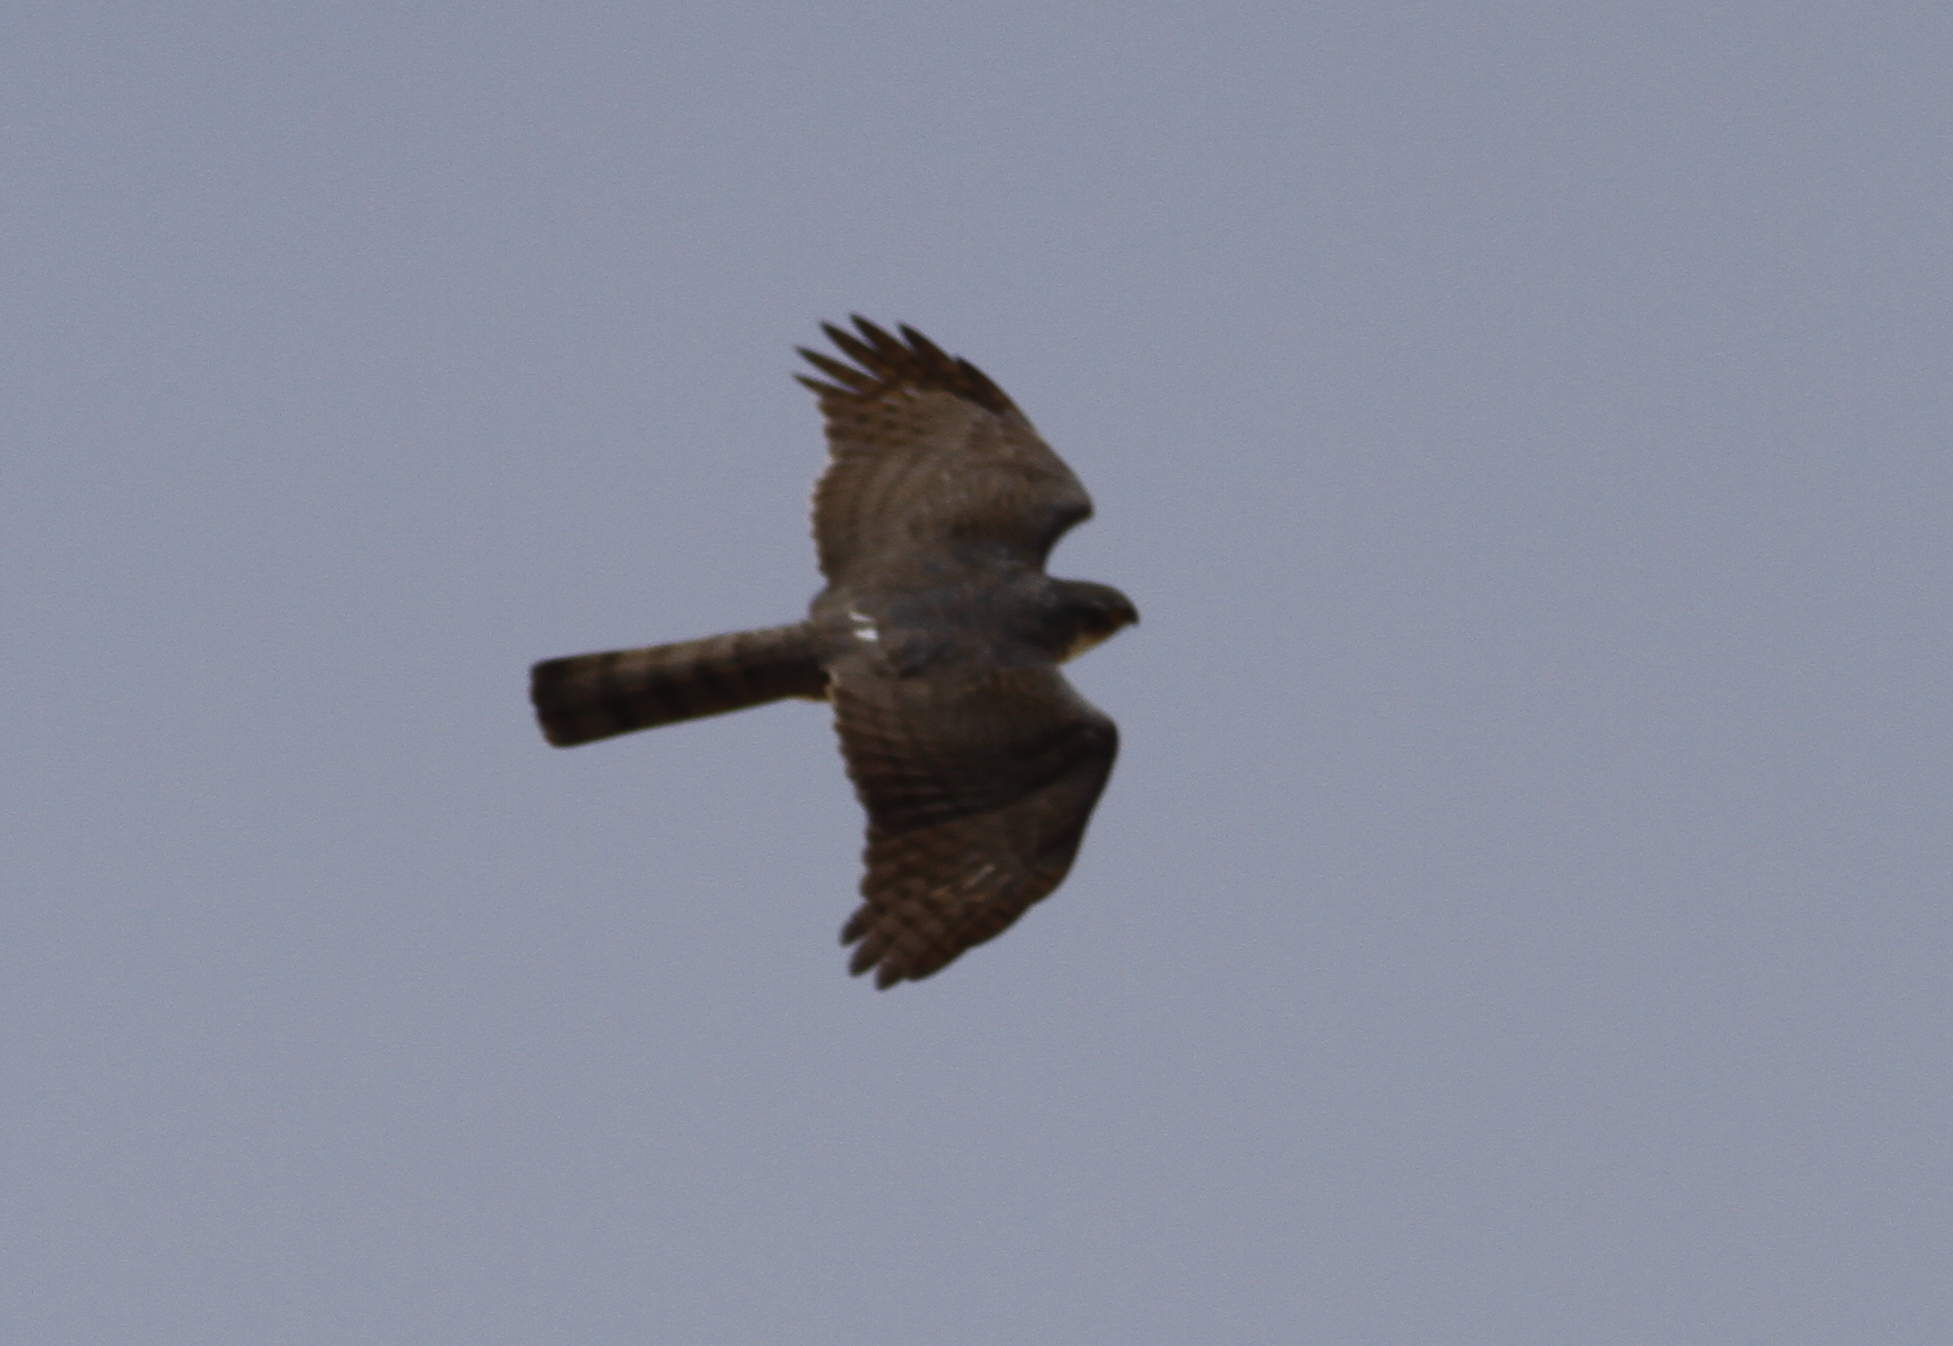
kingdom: Animalia
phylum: Chordata
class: Aves
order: Accipitriformes
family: Accipitridae
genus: Accipiter
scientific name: Accipiter nisus
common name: Eurasian sparrowhawk
